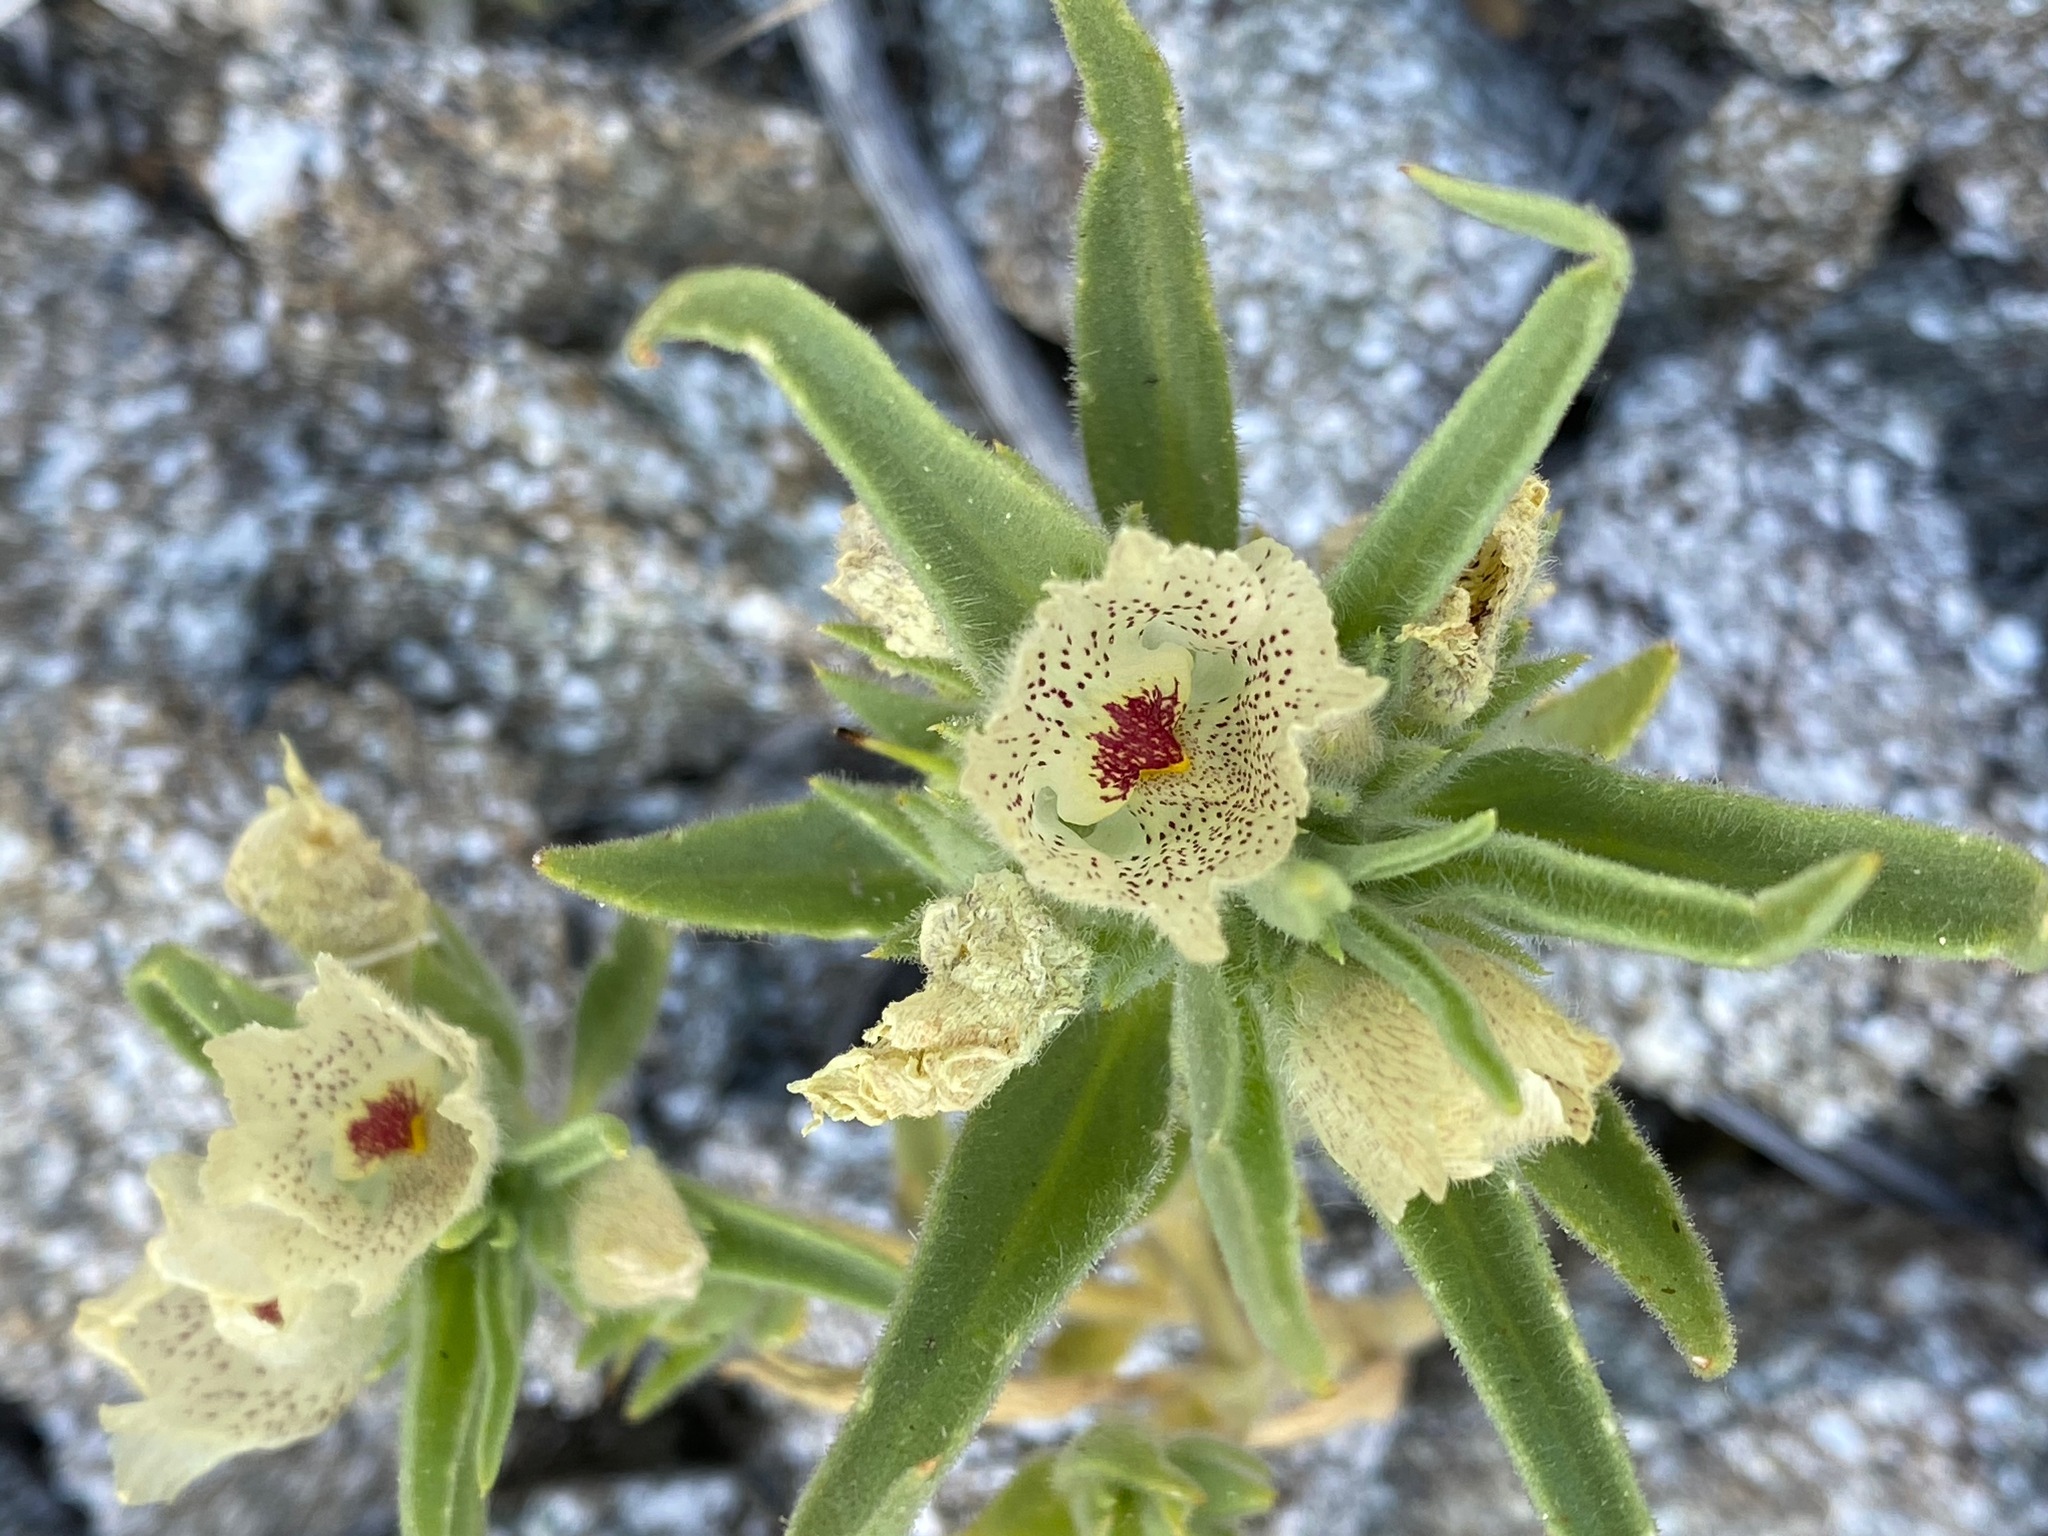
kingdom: Plantae
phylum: Tracheophyta
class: Magnoliopsida
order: Lamiales
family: Plantaginaceae
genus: Mohavea
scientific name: Mohavea confertiflora
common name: Ghost flower
